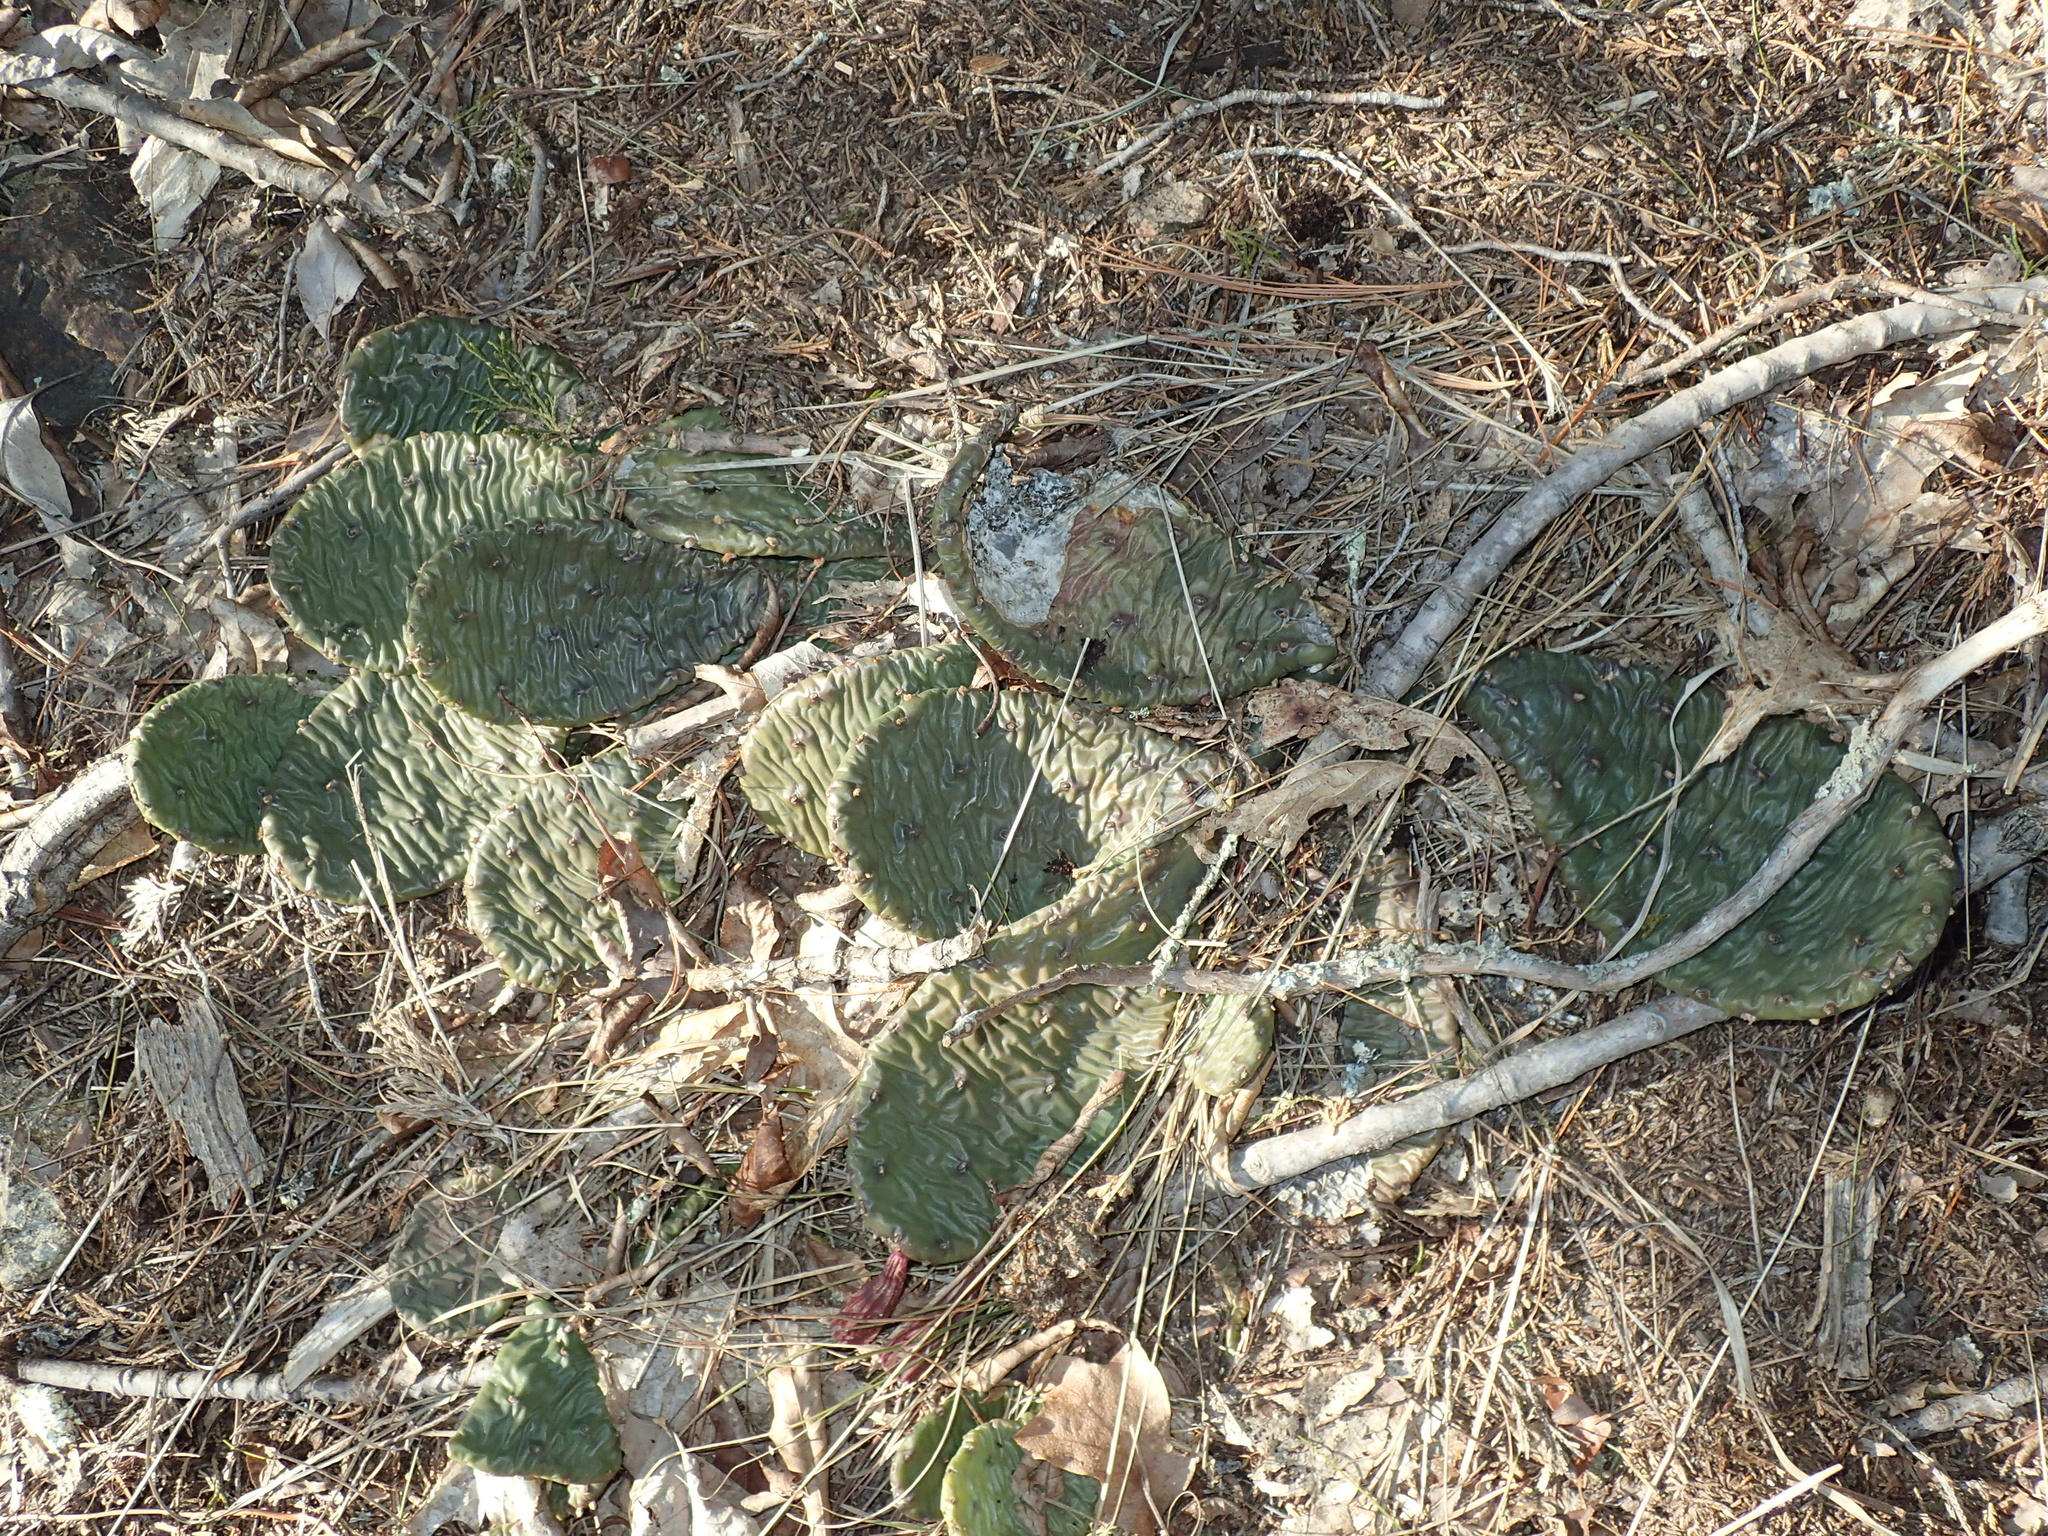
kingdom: Plantae
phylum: Tracheophyta
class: Magnoliopsida
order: Caryophyllales
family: Cactaceae
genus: Opuntia
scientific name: Opuntia humifusa
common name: Eastern prickly-pear
